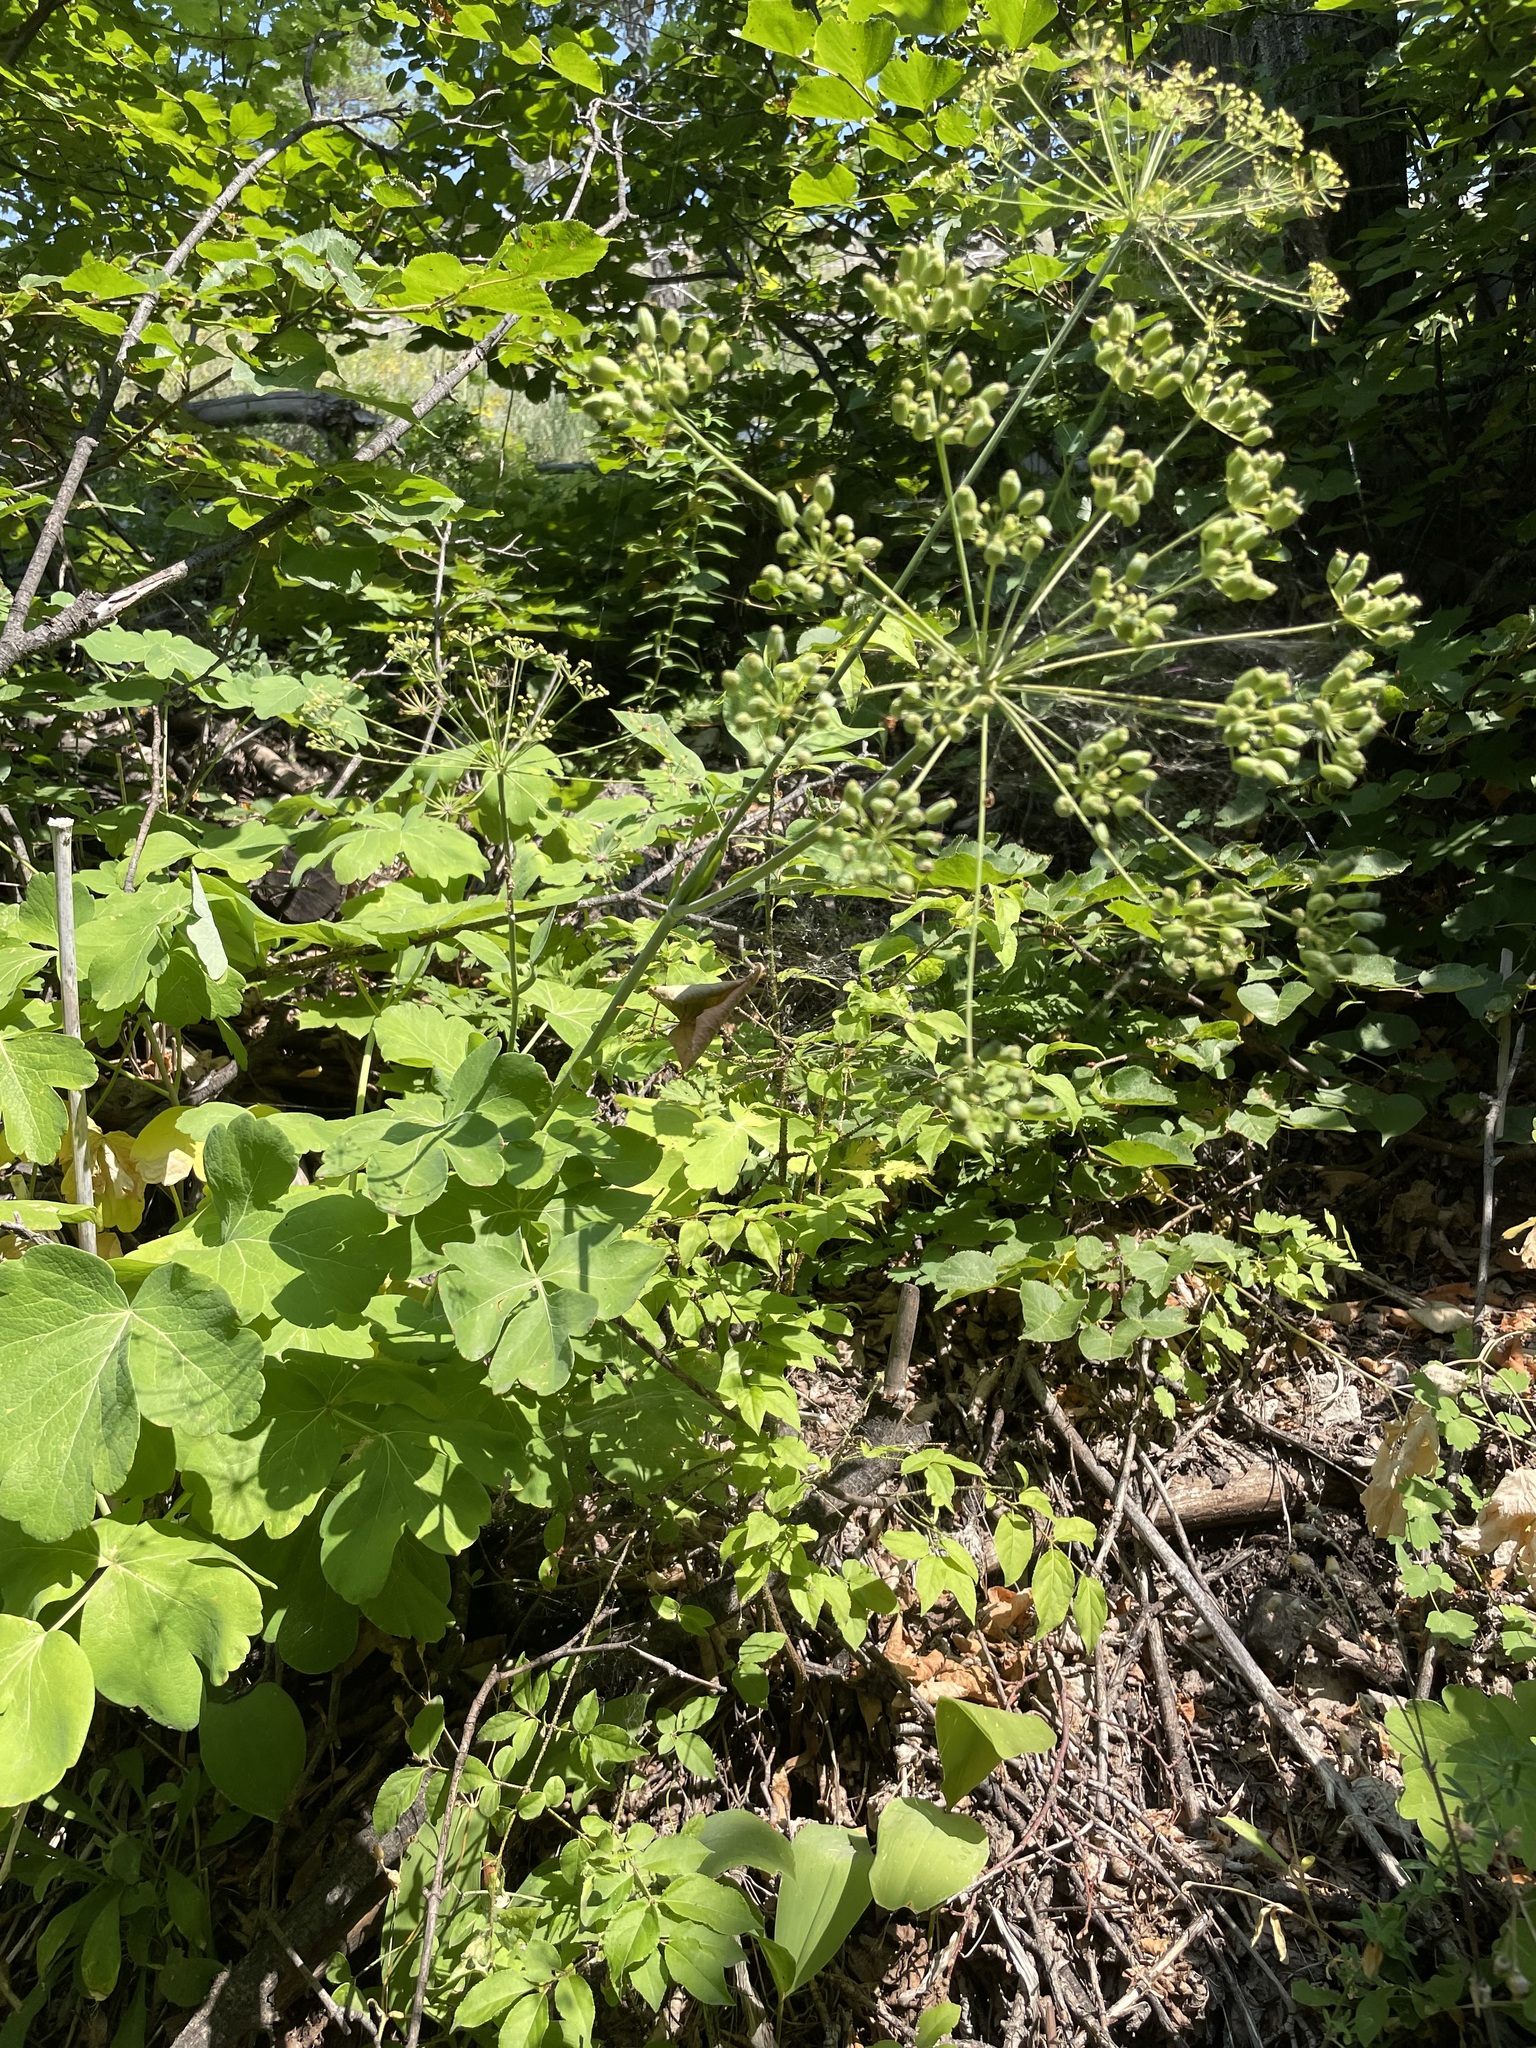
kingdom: Plantae
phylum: Tracheophyta
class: Magnoliopsida
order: Apiales
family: Apiaceae
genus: Laser
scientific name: Laser trilobum
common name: Laser
